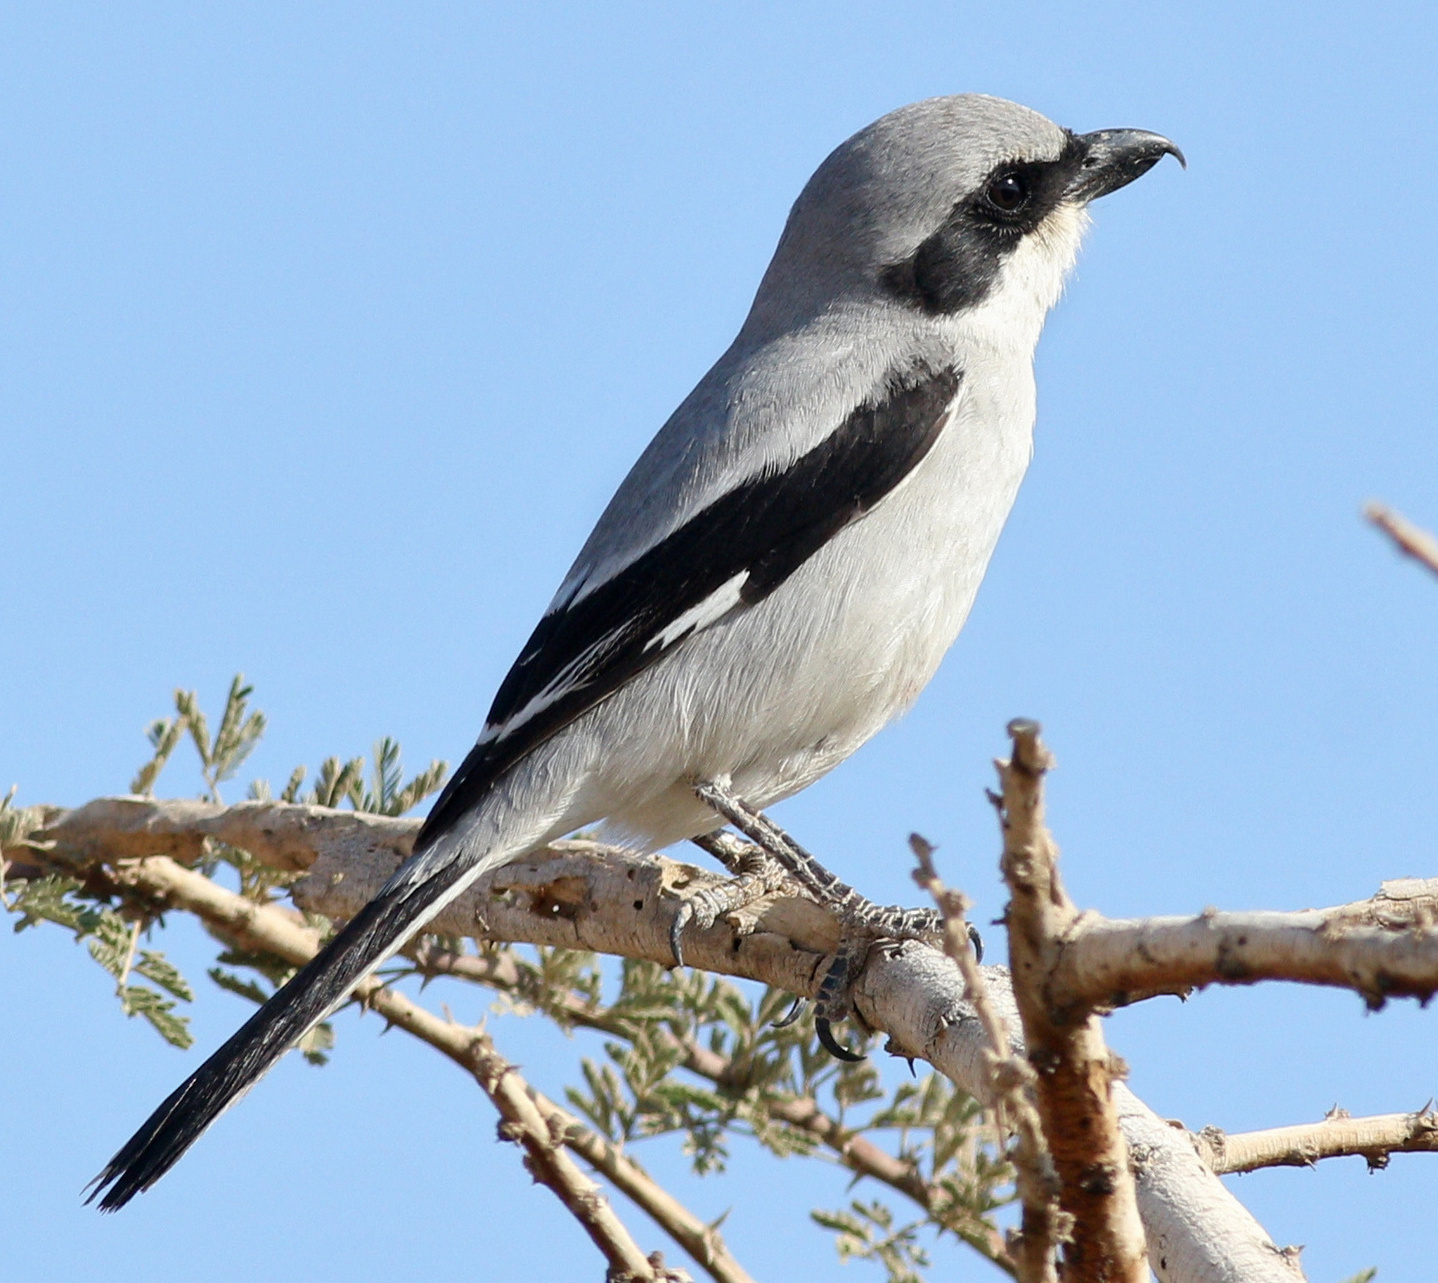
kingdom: Animalia
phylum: Chordata
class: Aves
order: Passeriformes
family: Laniidae
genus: Lanius
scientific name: Lanius excubitor
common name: Great grey shrike
